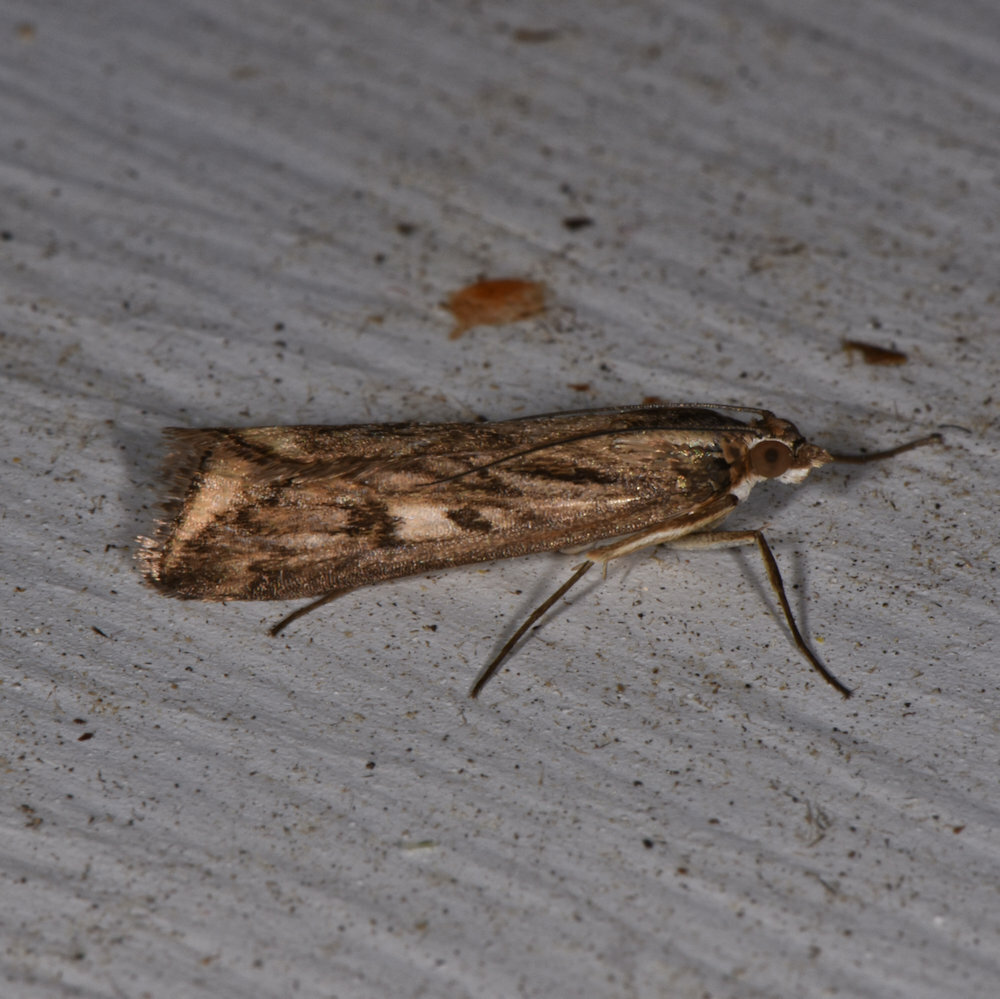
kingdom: Animalia
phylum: Arthropoda
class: Insecta
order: Lepidoptera
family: Crambidae
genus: Loxostege
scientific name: Loxostege cereralis
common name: Alfalfa webworm moth
